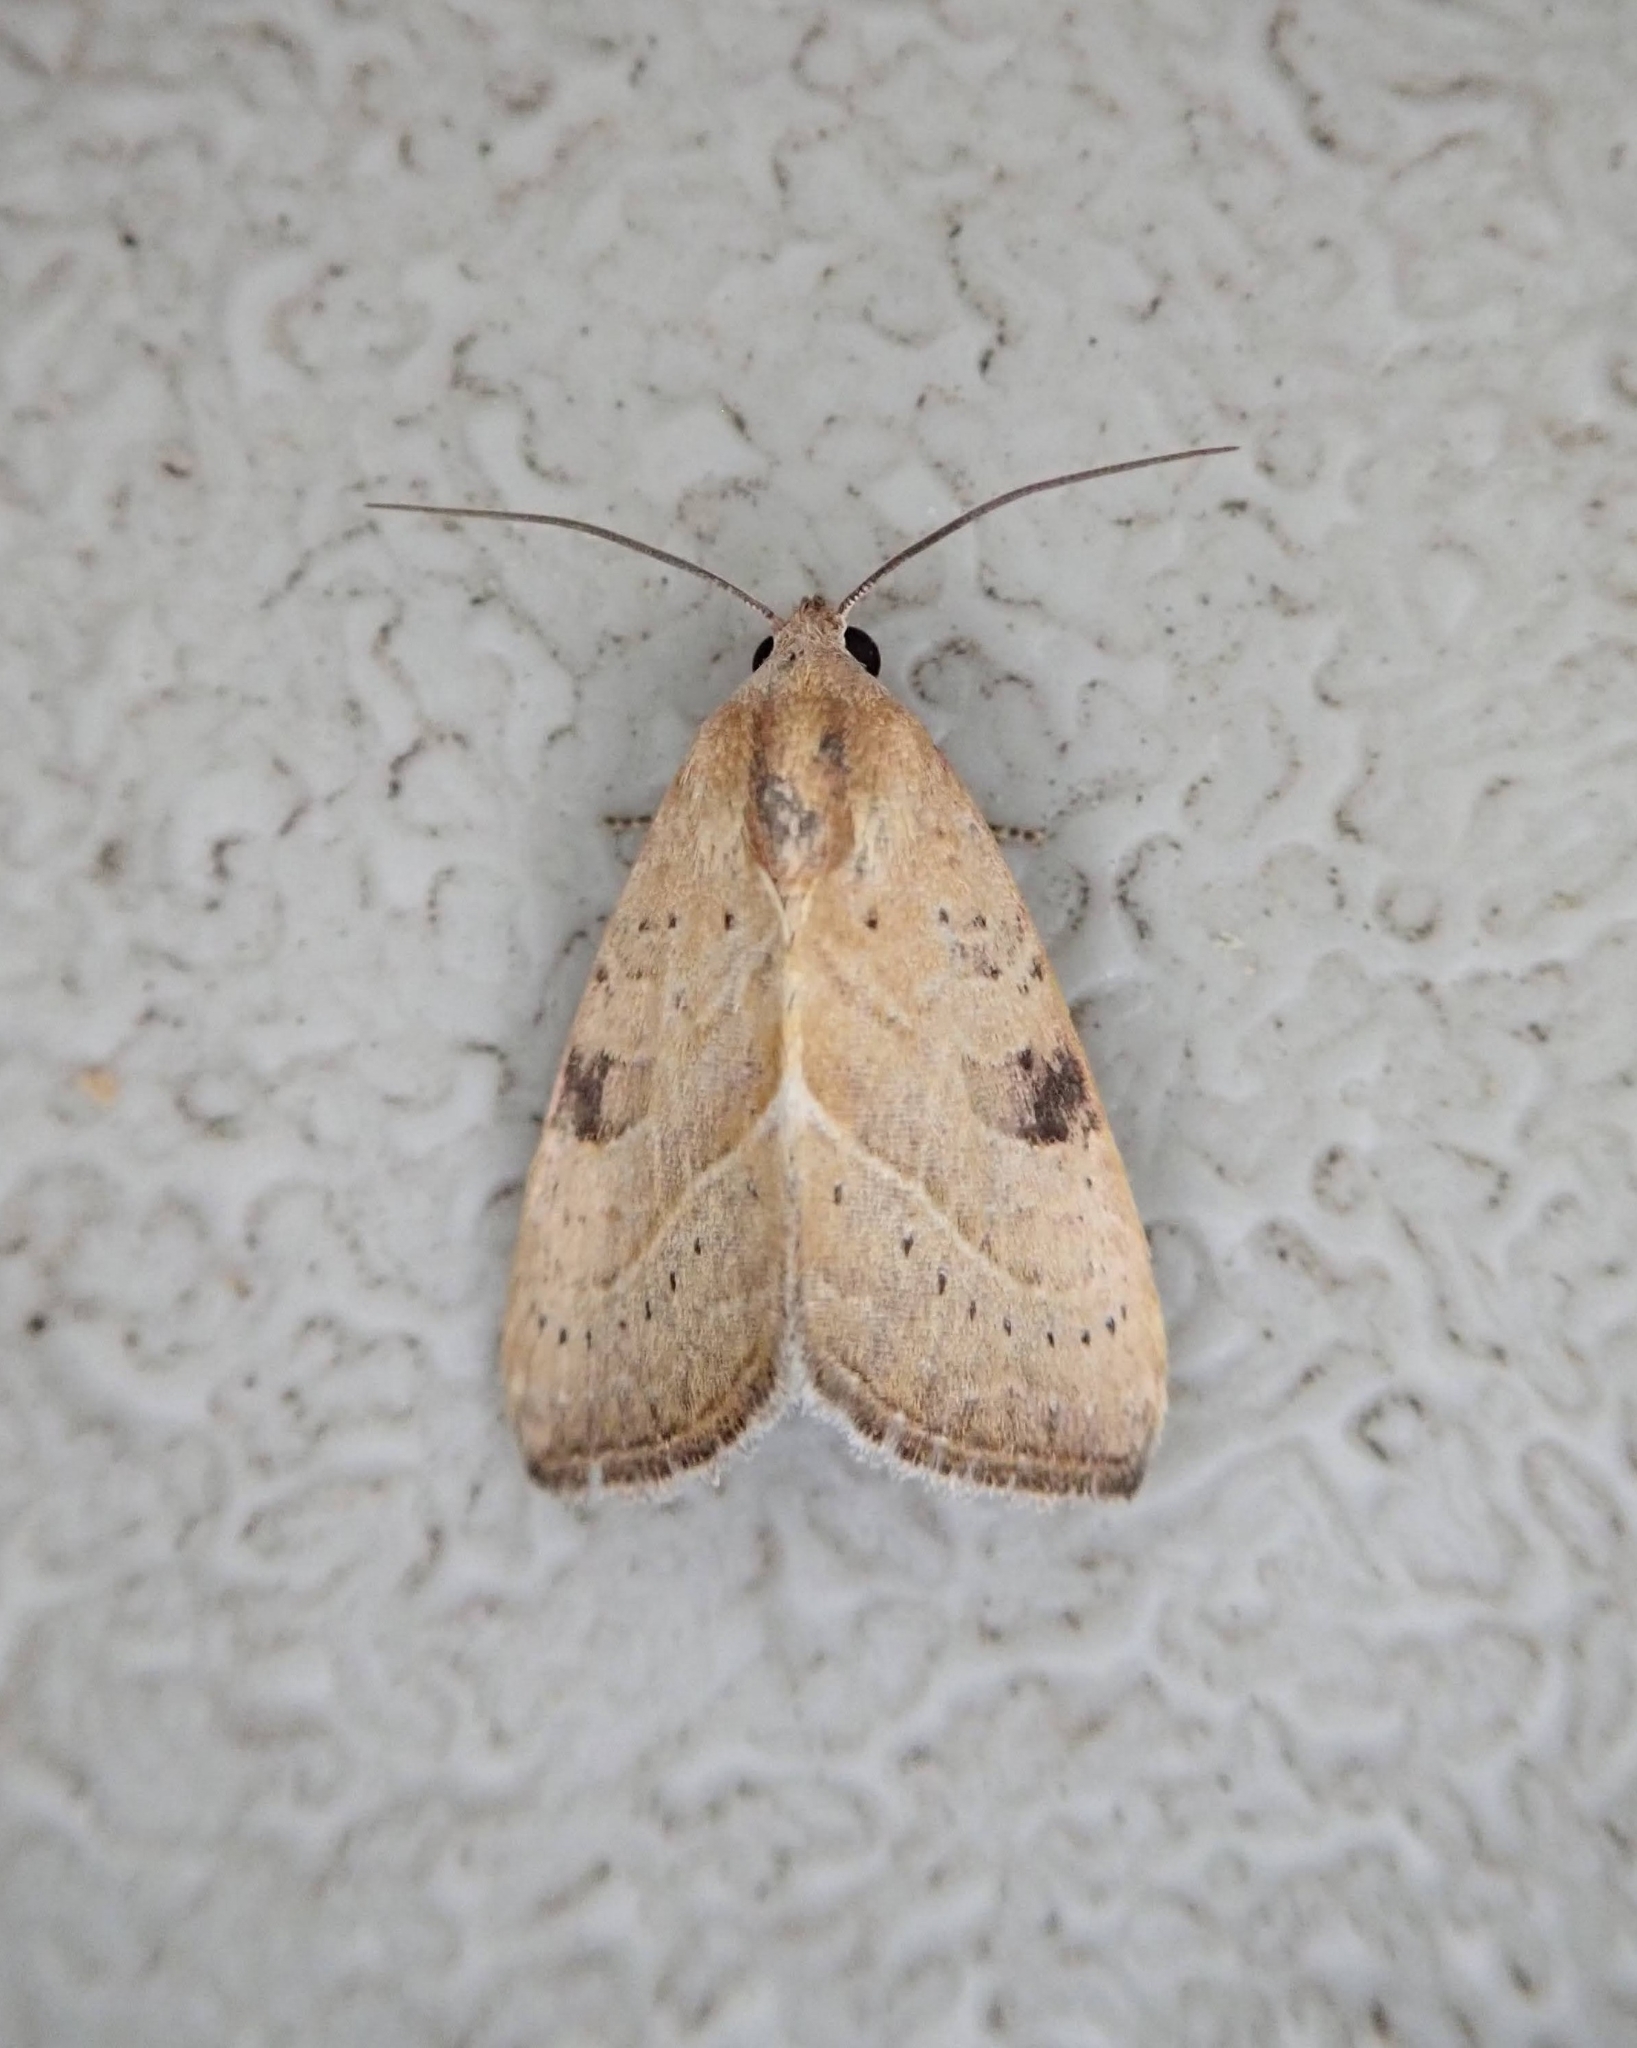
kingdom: Animalia
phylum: Arthropoda
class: Insecta
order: Lepidoptera
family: Noctuidae
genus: Galgula
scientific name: Galgula partita
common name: Wedgeling
